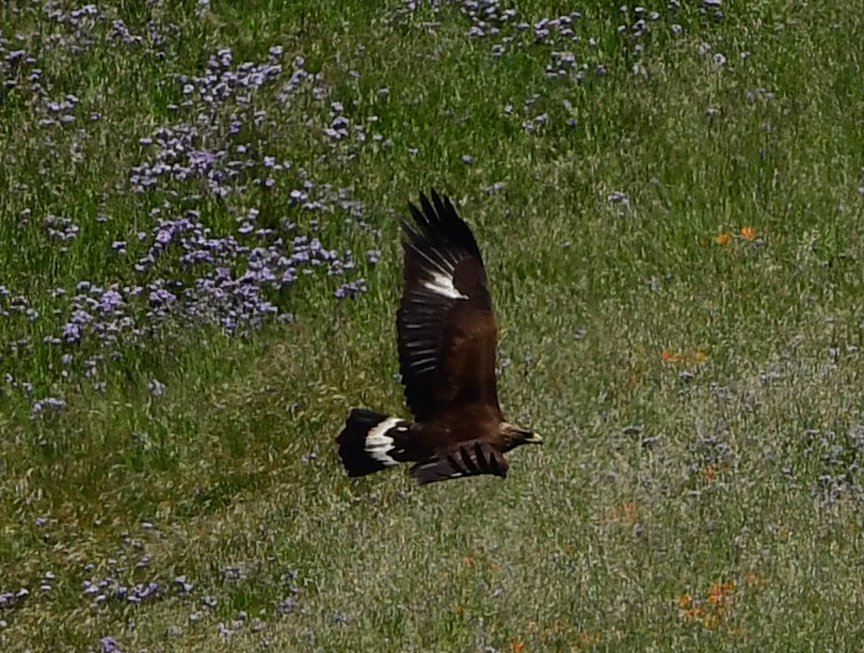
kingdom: Animalia
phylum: Chordata
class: Aves
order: Accipitriformes
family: Accipitridae
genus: Aquila
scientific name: Aquila chrysaetos
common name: Golden eagle
